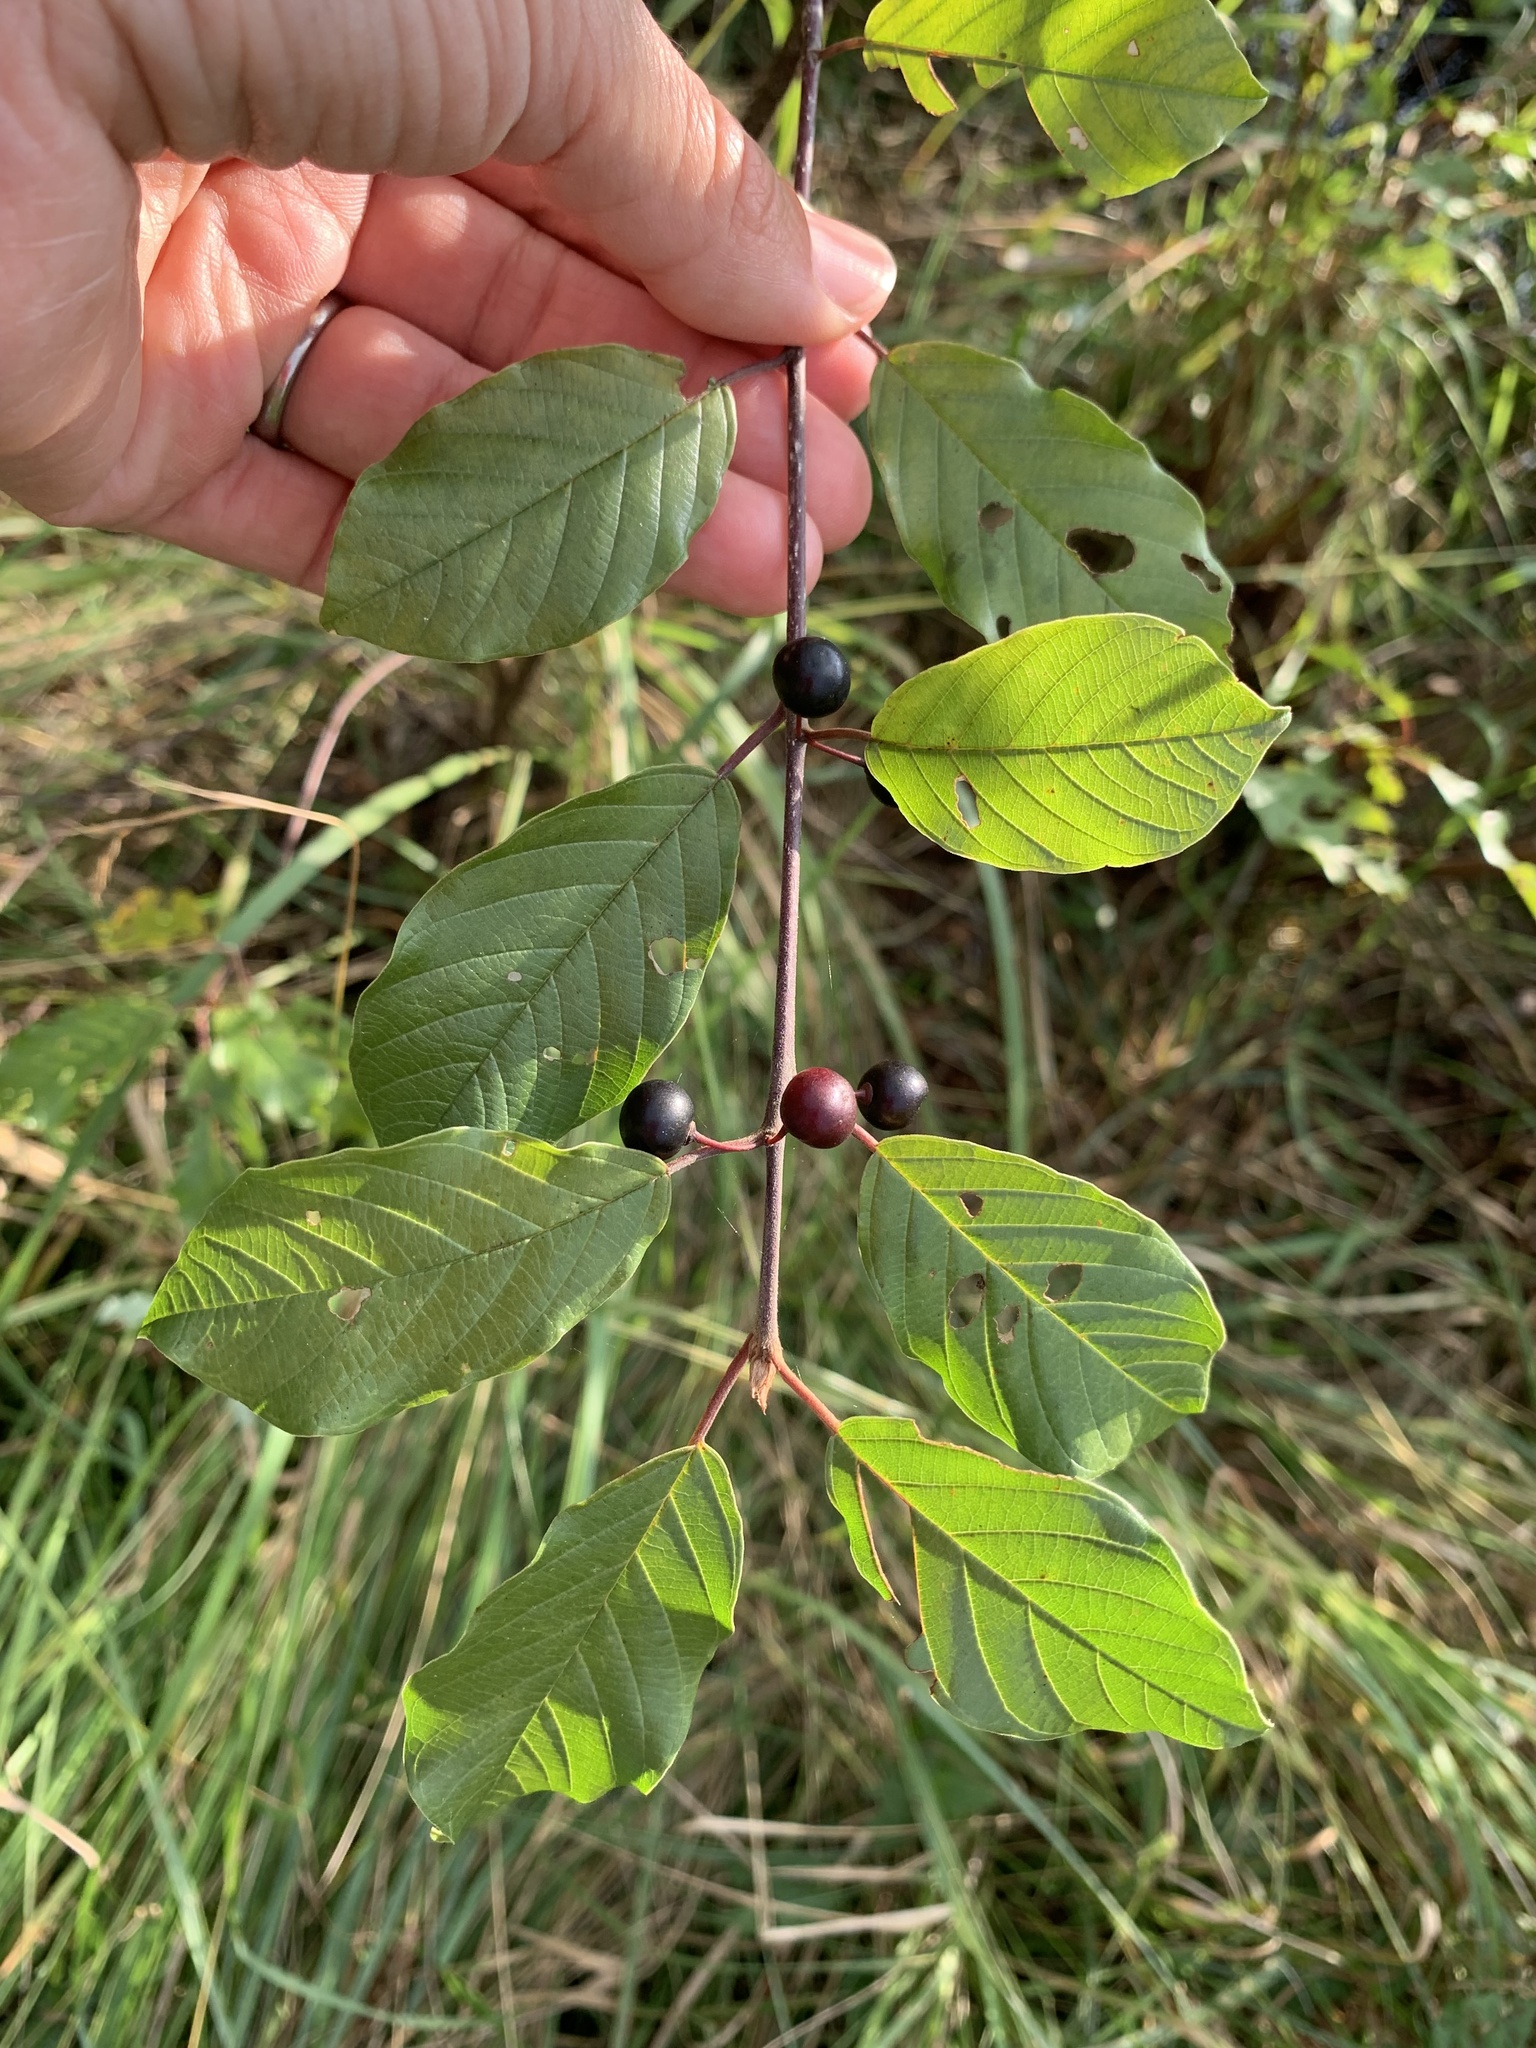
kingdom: Plantae
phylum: Tracheophyta
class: Magnoliopsida
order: Rosales
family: Rhamnaceae
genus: Frangula
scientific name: Frangula alnus
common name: Alder buckthorn
